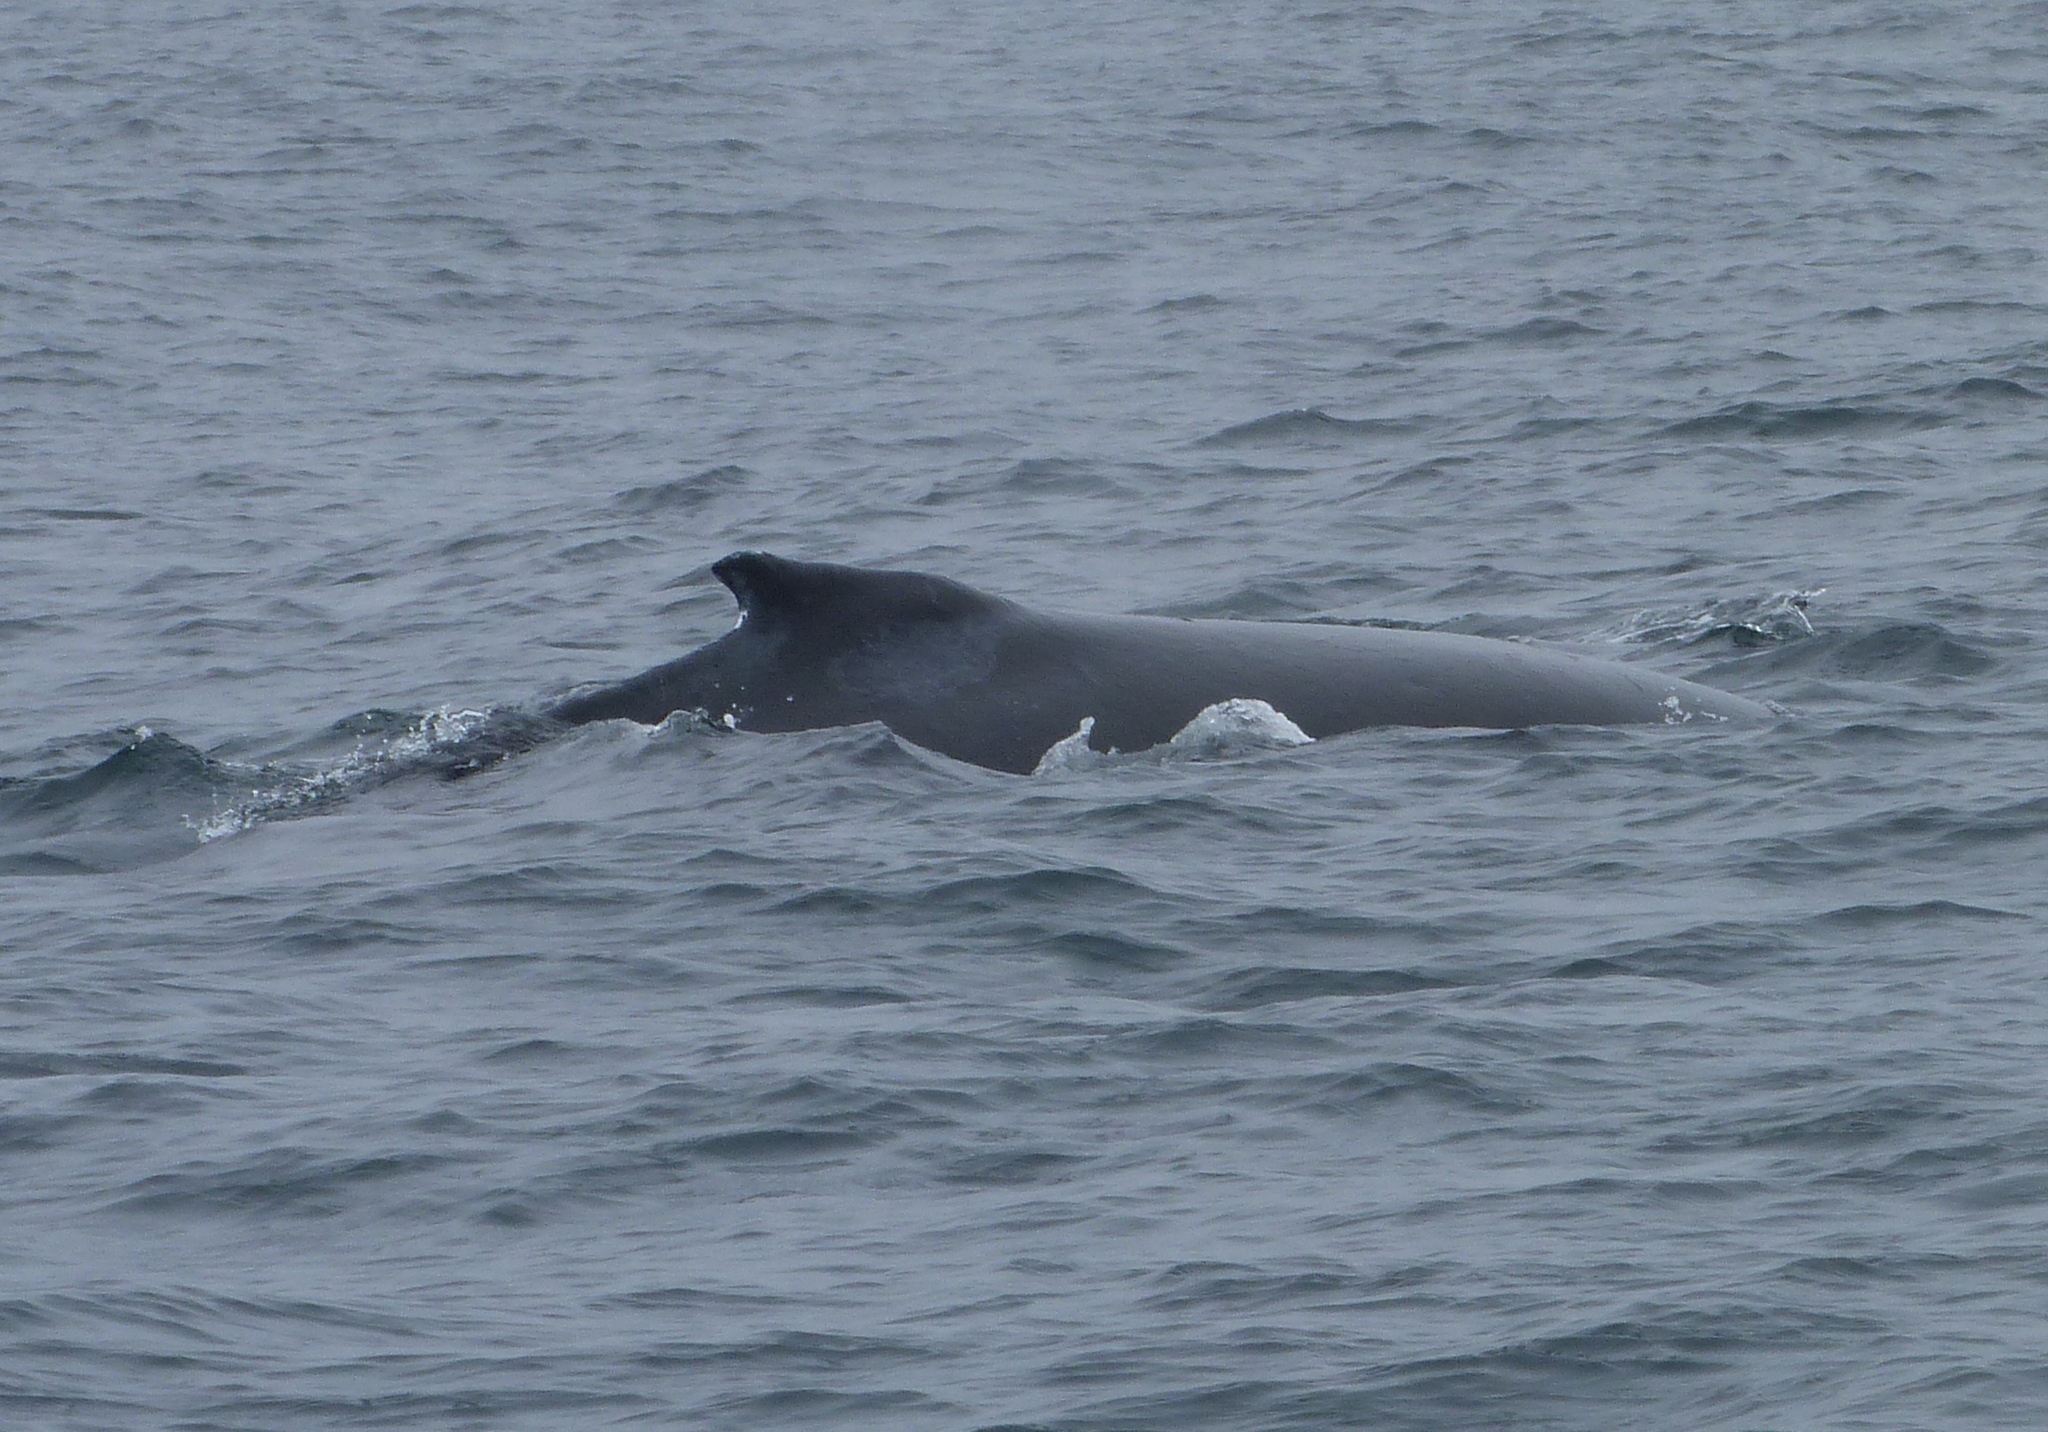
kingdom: Animalia
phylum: Chordata
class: Mammalia
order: Cetacea
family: Balaenopteridae
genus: Megaptera
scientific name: Megaptera novaeangliae
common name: Humpback whale
